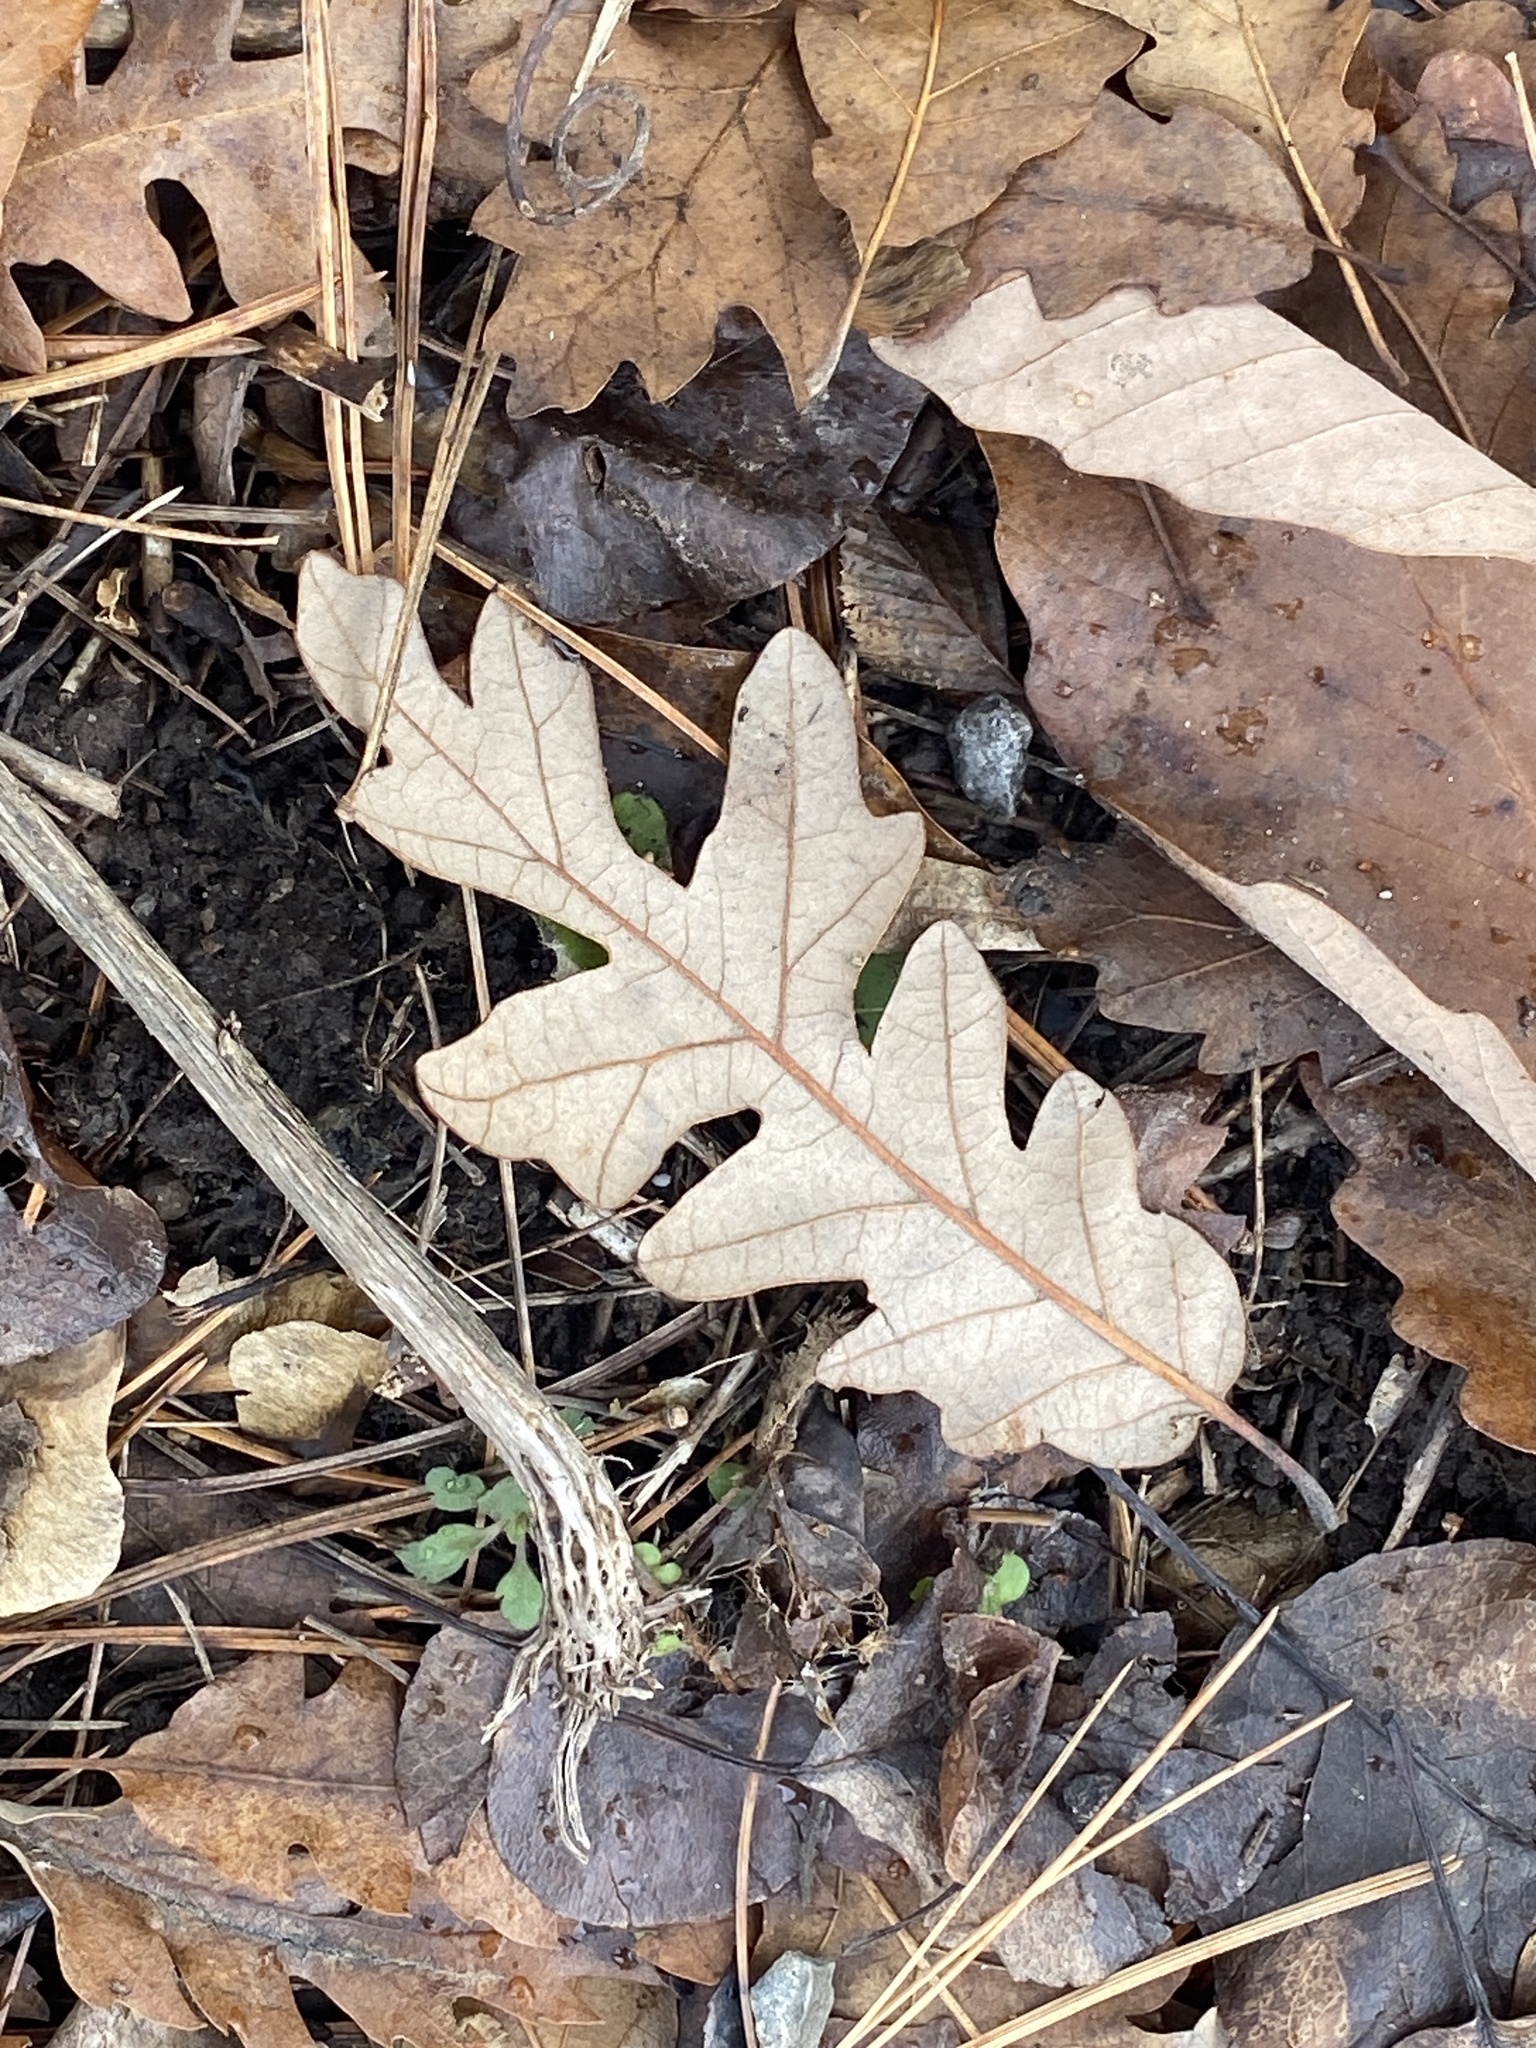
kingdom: Plantae
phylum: Tracheophyta
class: Magnoliopsida
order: Fagales
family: Fagaceae
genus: Quercus
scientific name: Quercus alba
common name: White oak
